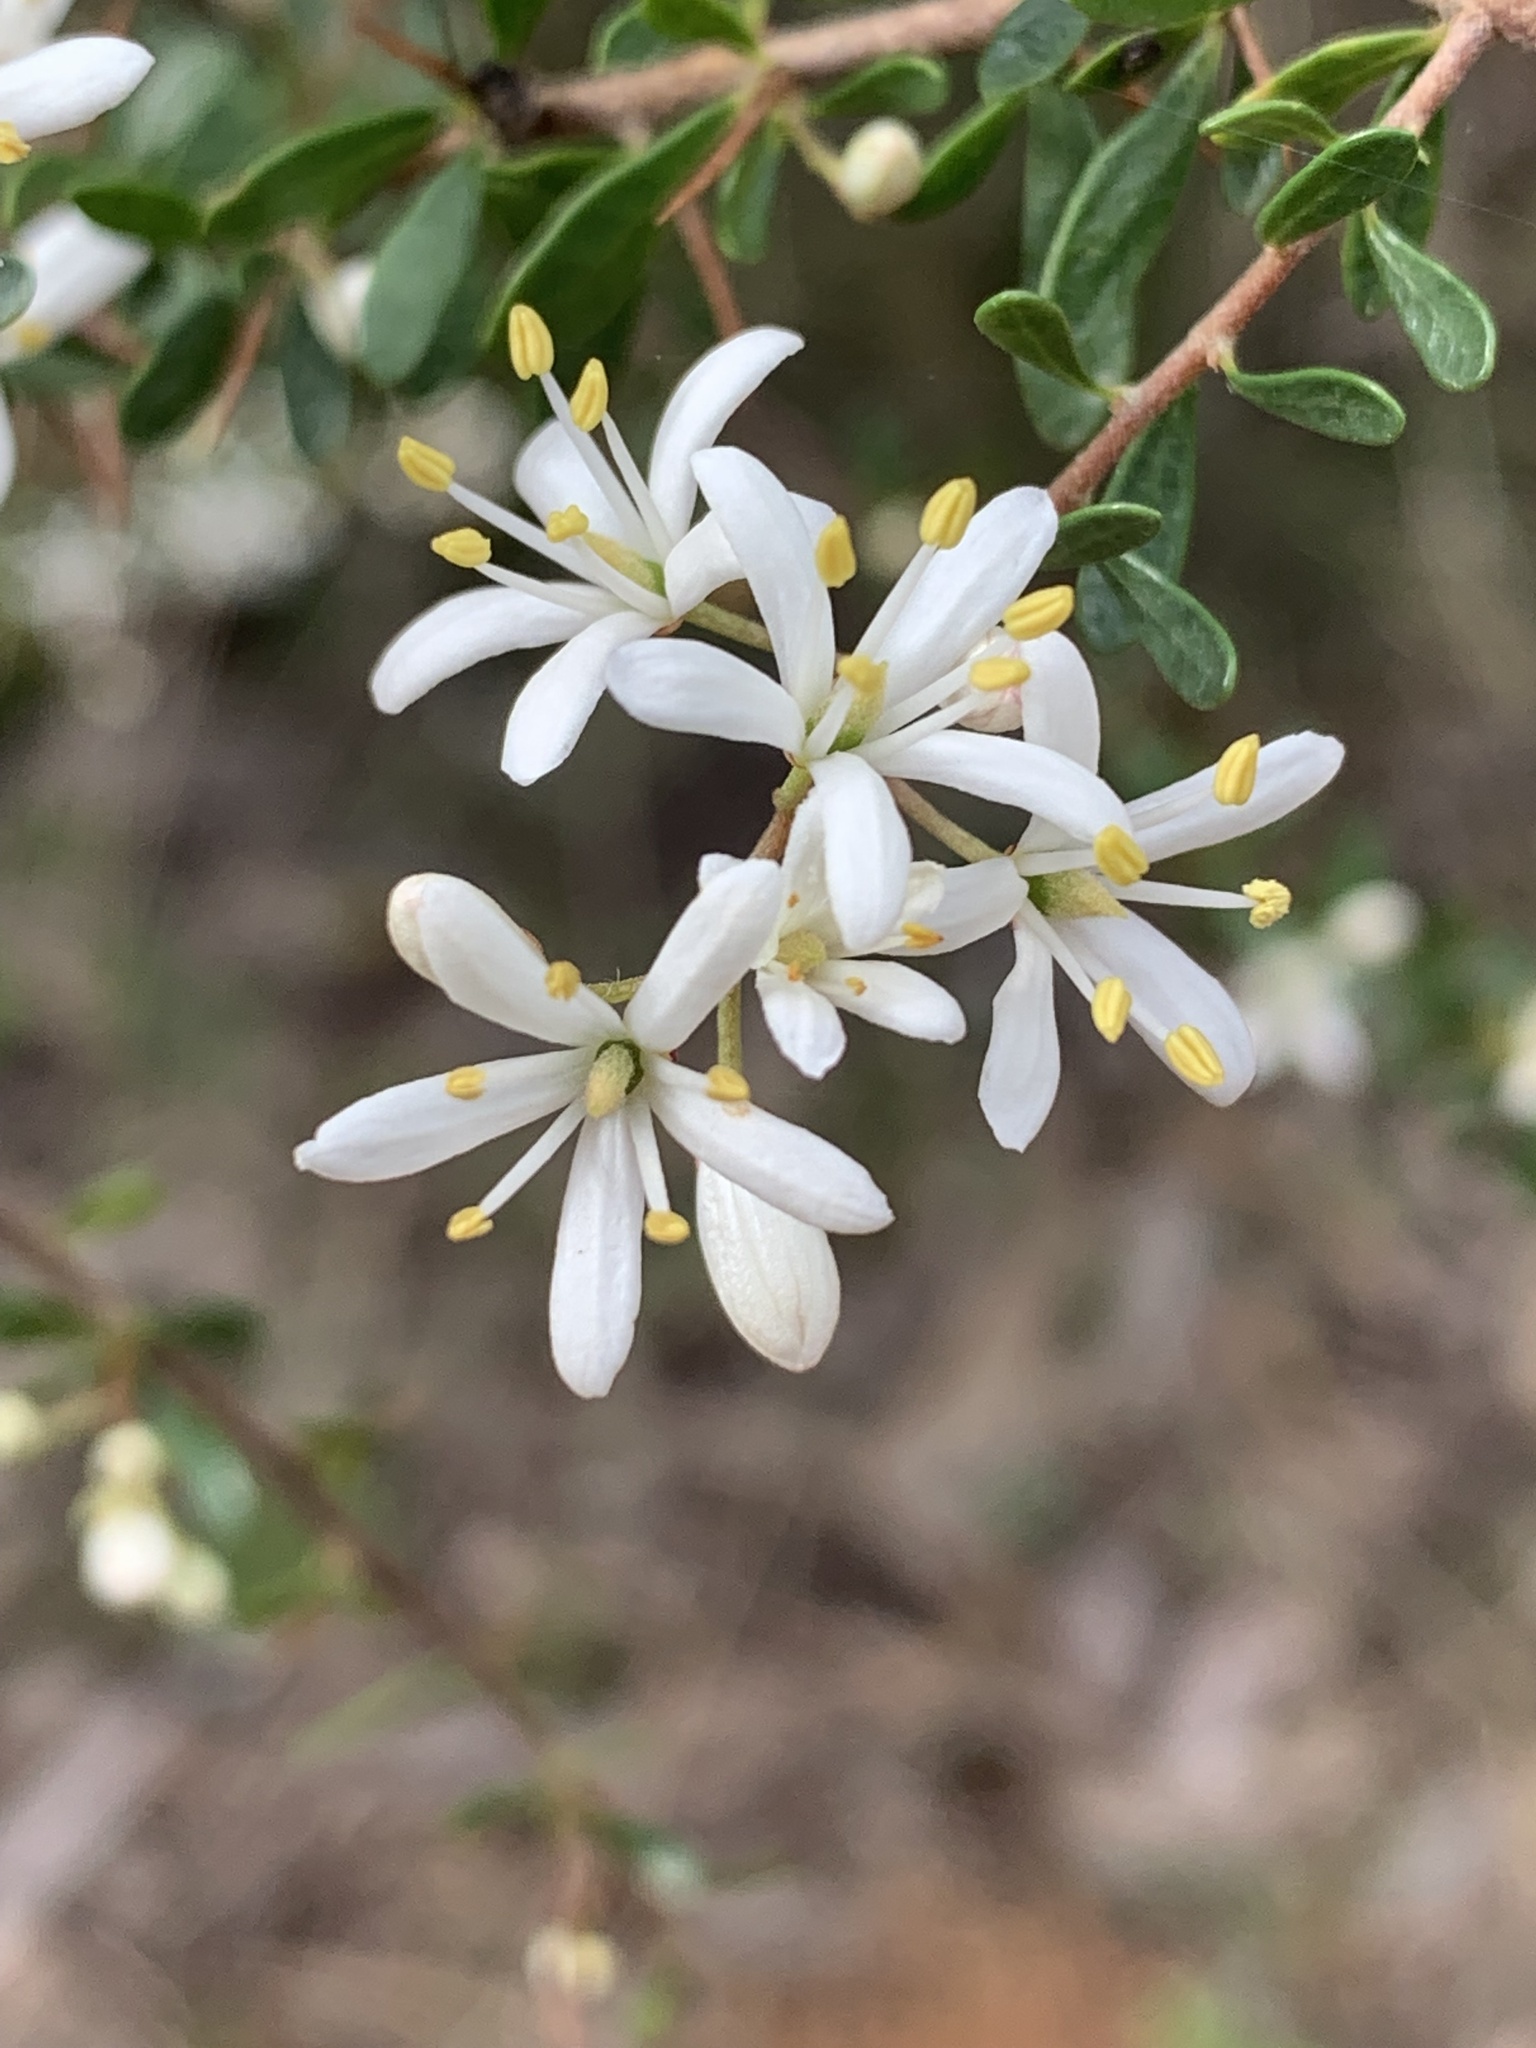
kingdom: Plantae
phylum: Tracheophyta
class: Magnoliopsida
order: Apiales
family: Pittosporaceae
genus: Bursaria
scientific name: Bursaria spinosa
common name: Australian blackthorn
